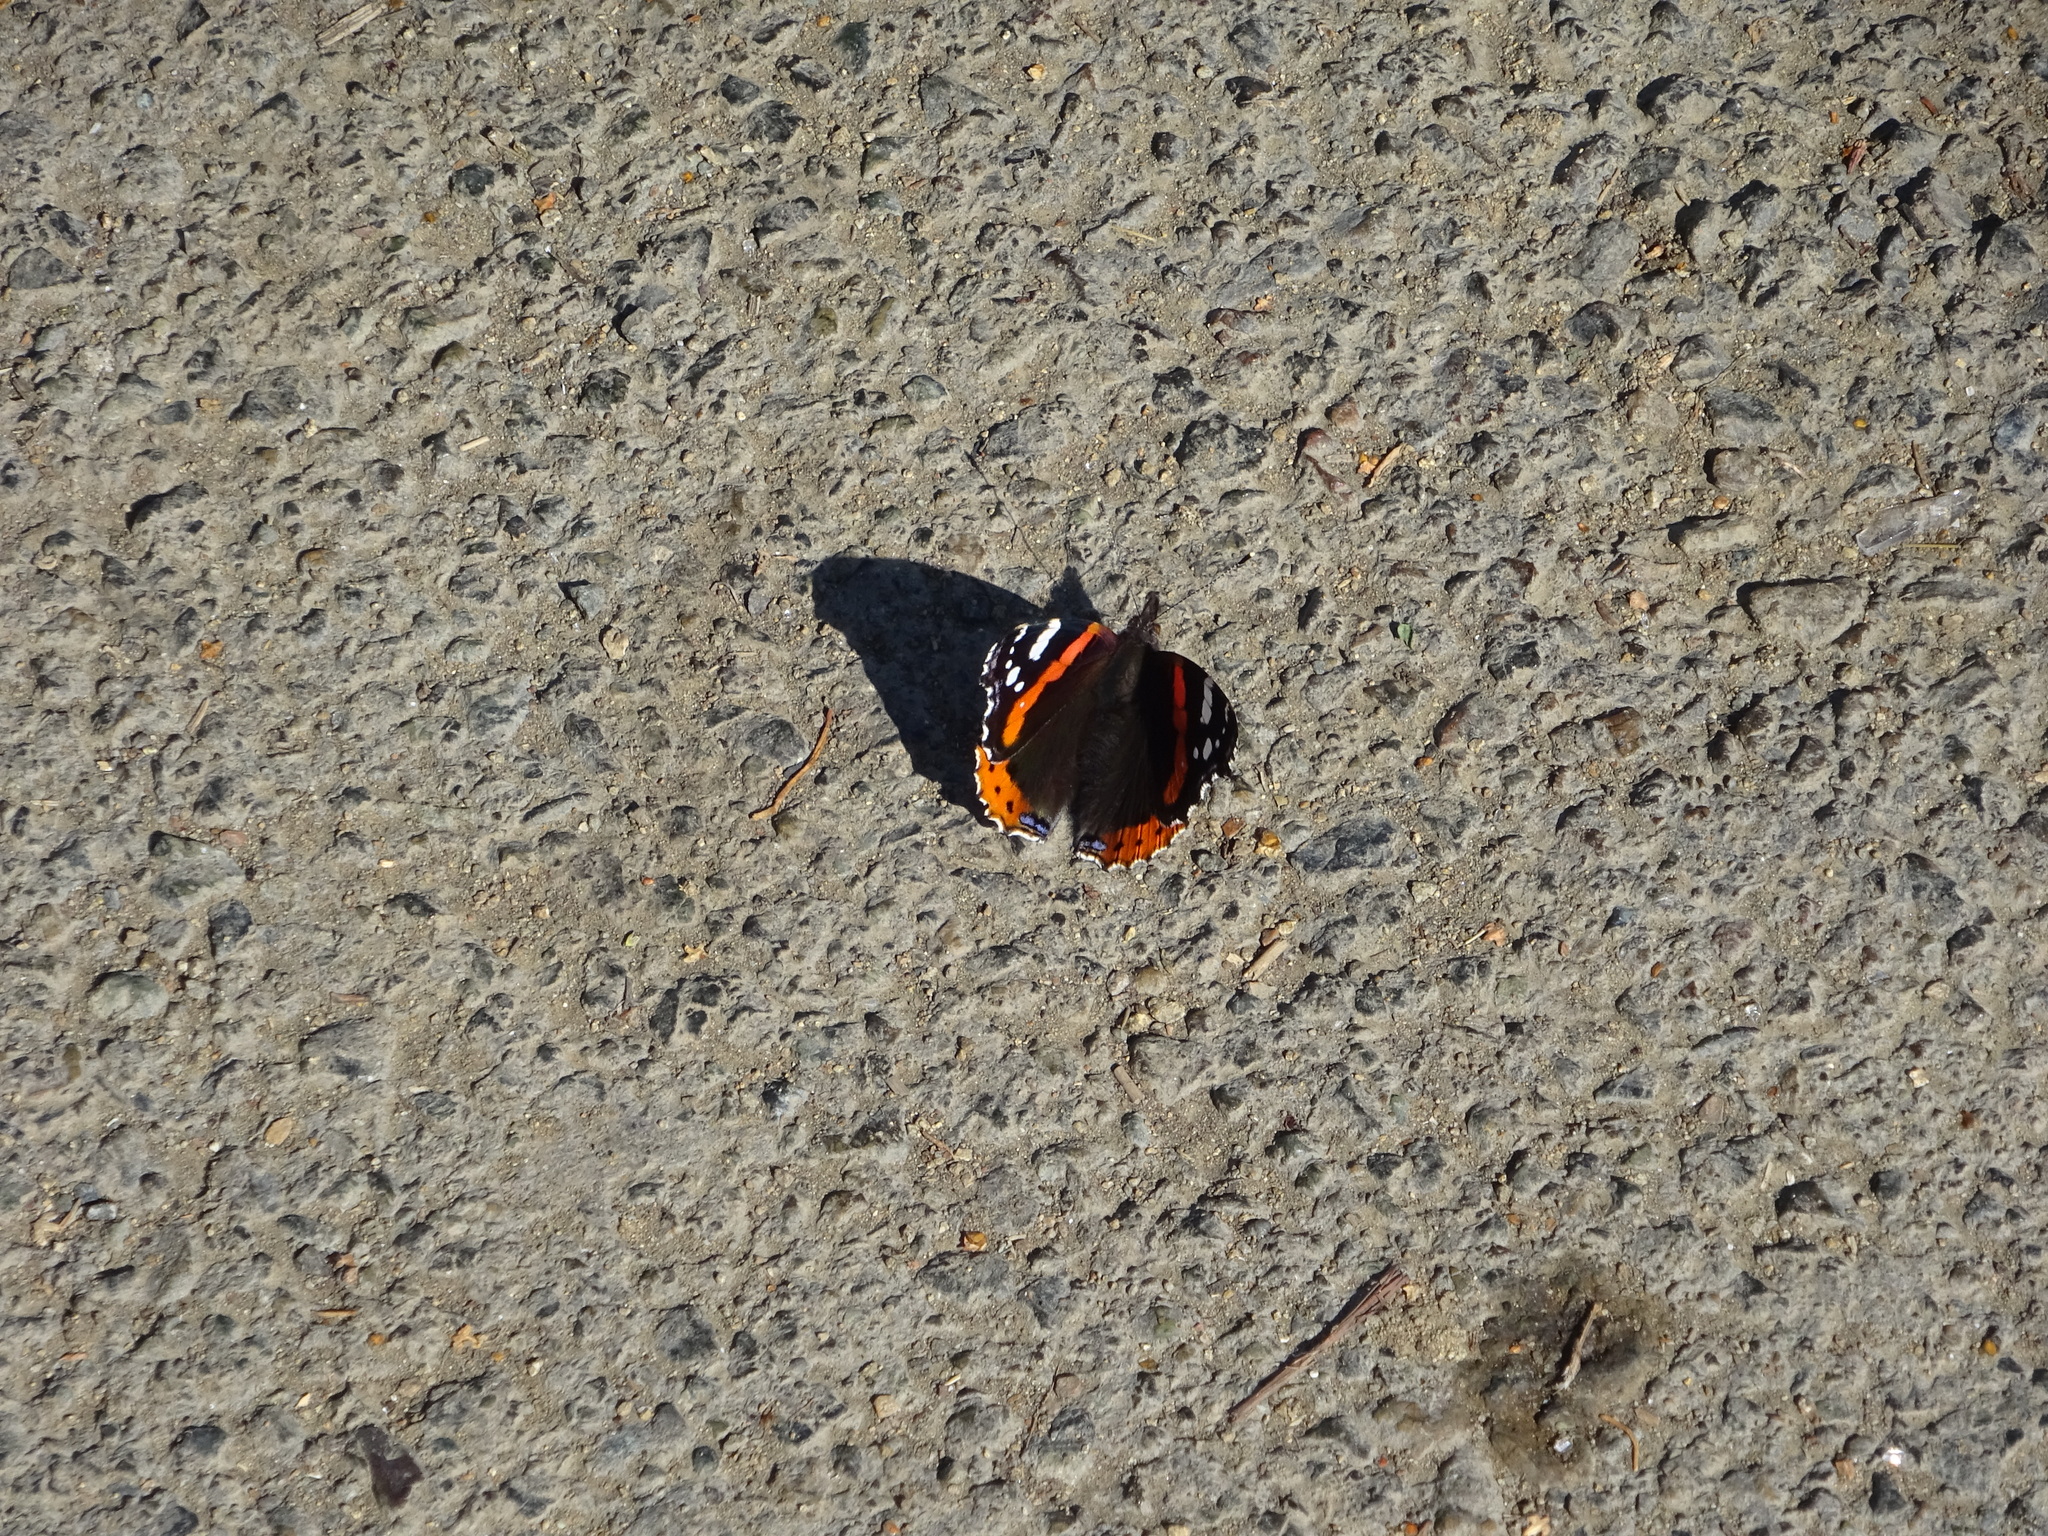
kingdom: Animalia
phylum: Arthropoda
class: Insecta
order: Lepidoptera
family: Nymphalidae
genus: Vanessa
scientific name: Vanessa atalanta
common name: Red admiral
